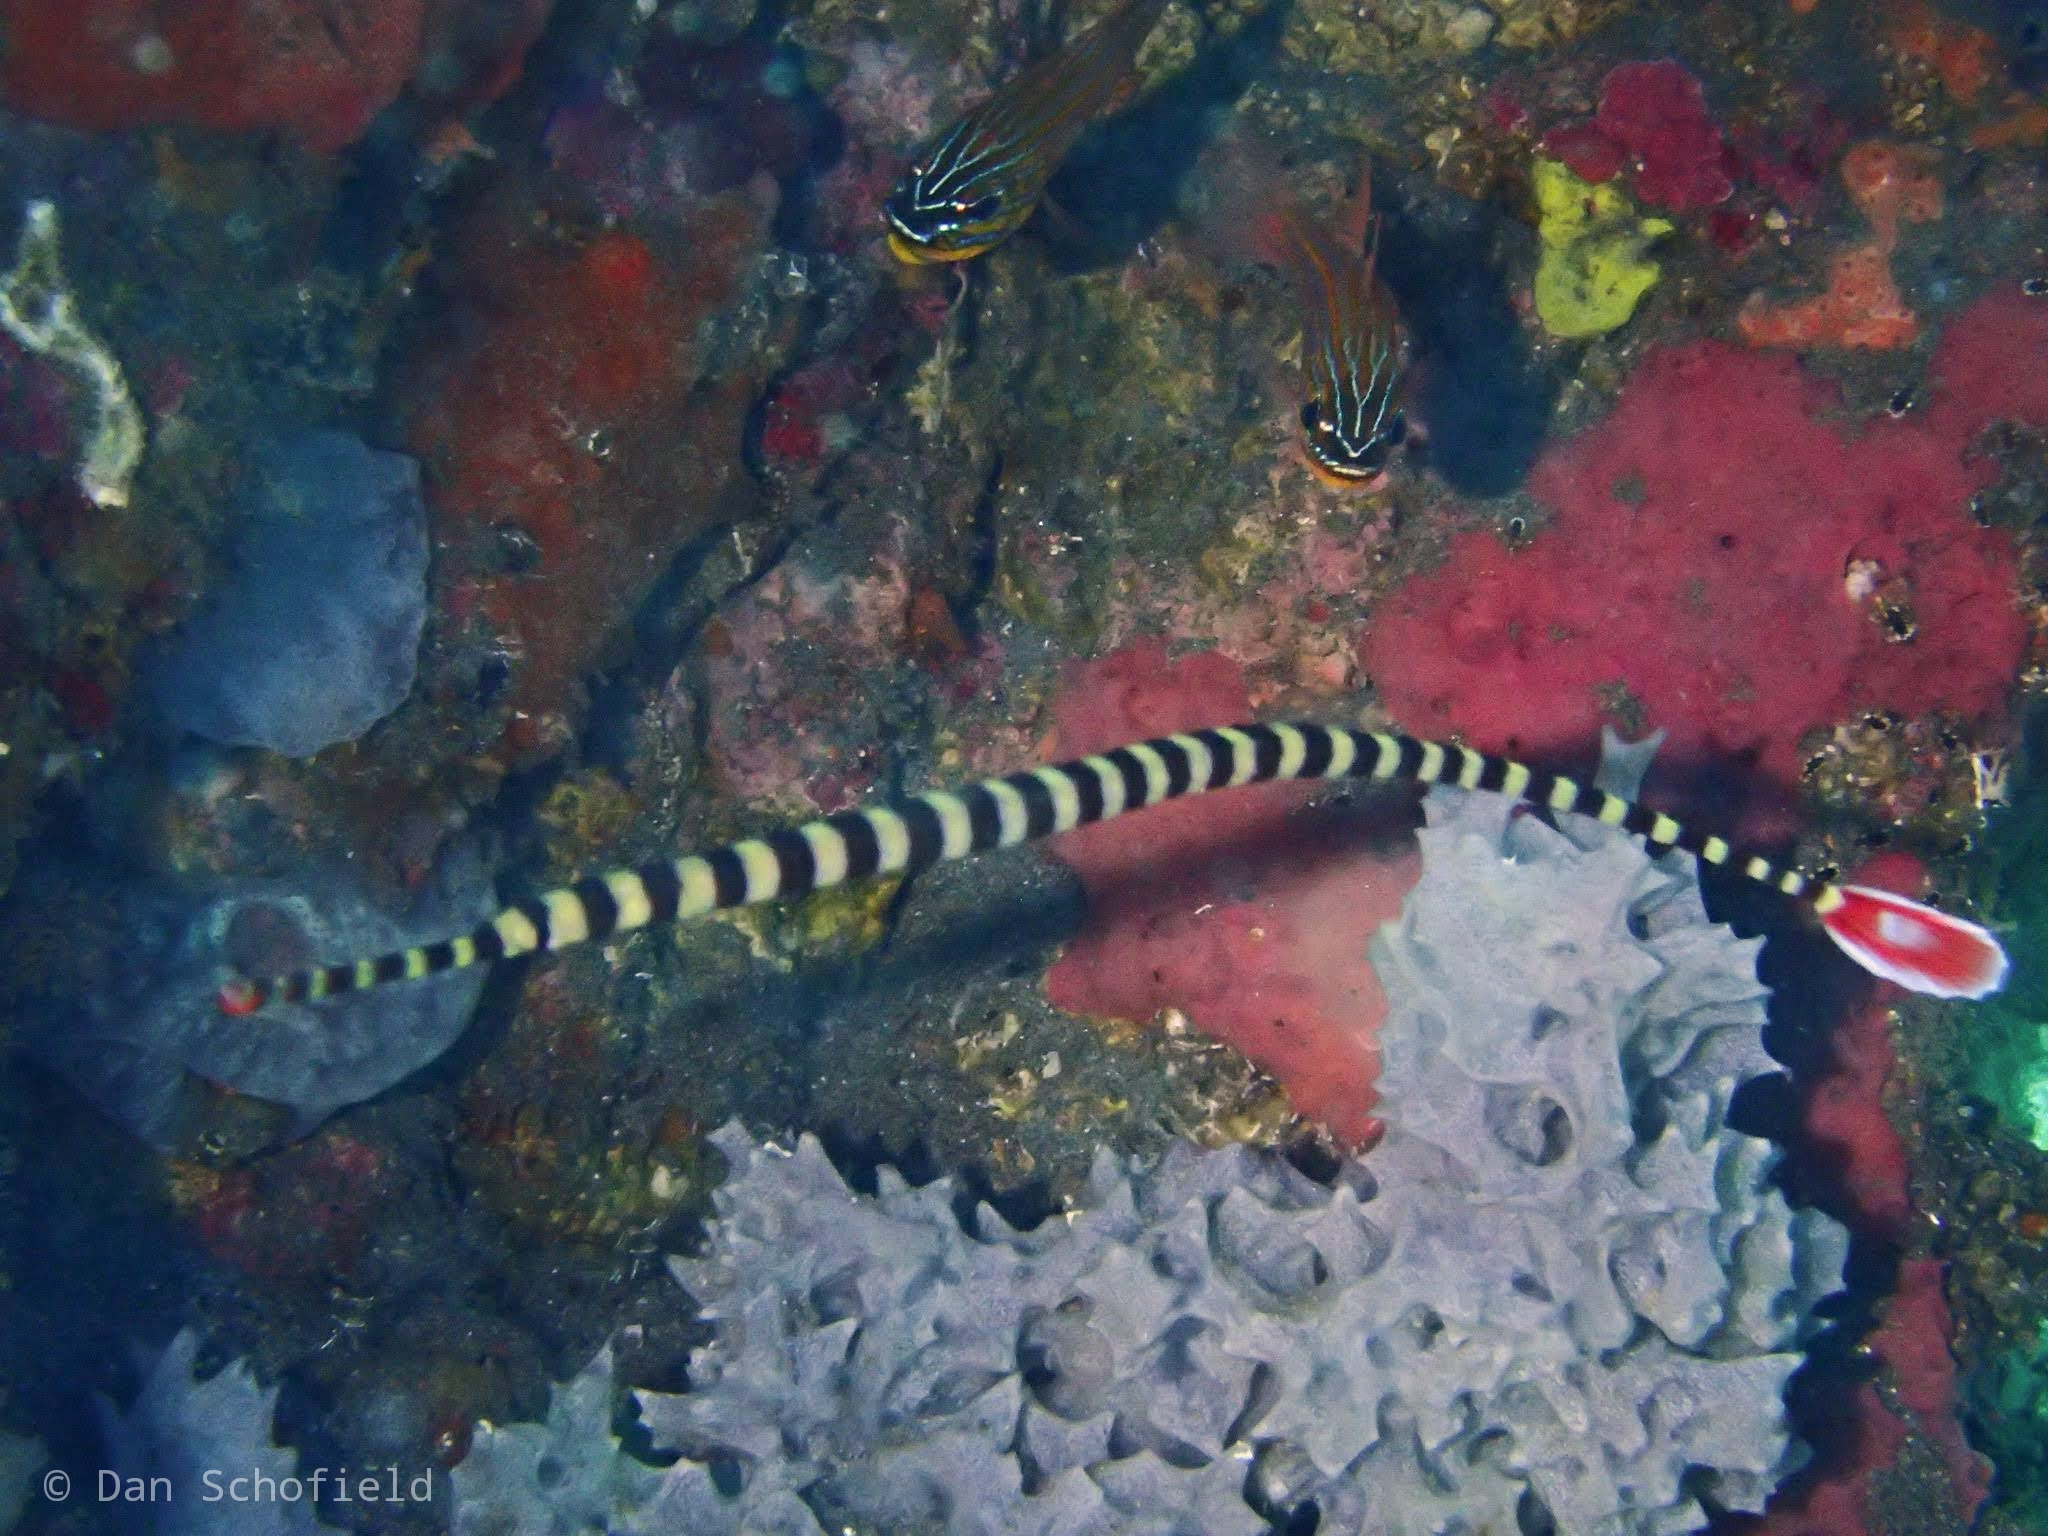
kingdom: Animalia
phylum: Chordata
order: Syngnathiformes
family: Syngnathidae
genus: Dunckerocampus
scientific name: Dunckerocampus dactyliophorus
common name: Banded pipefish
